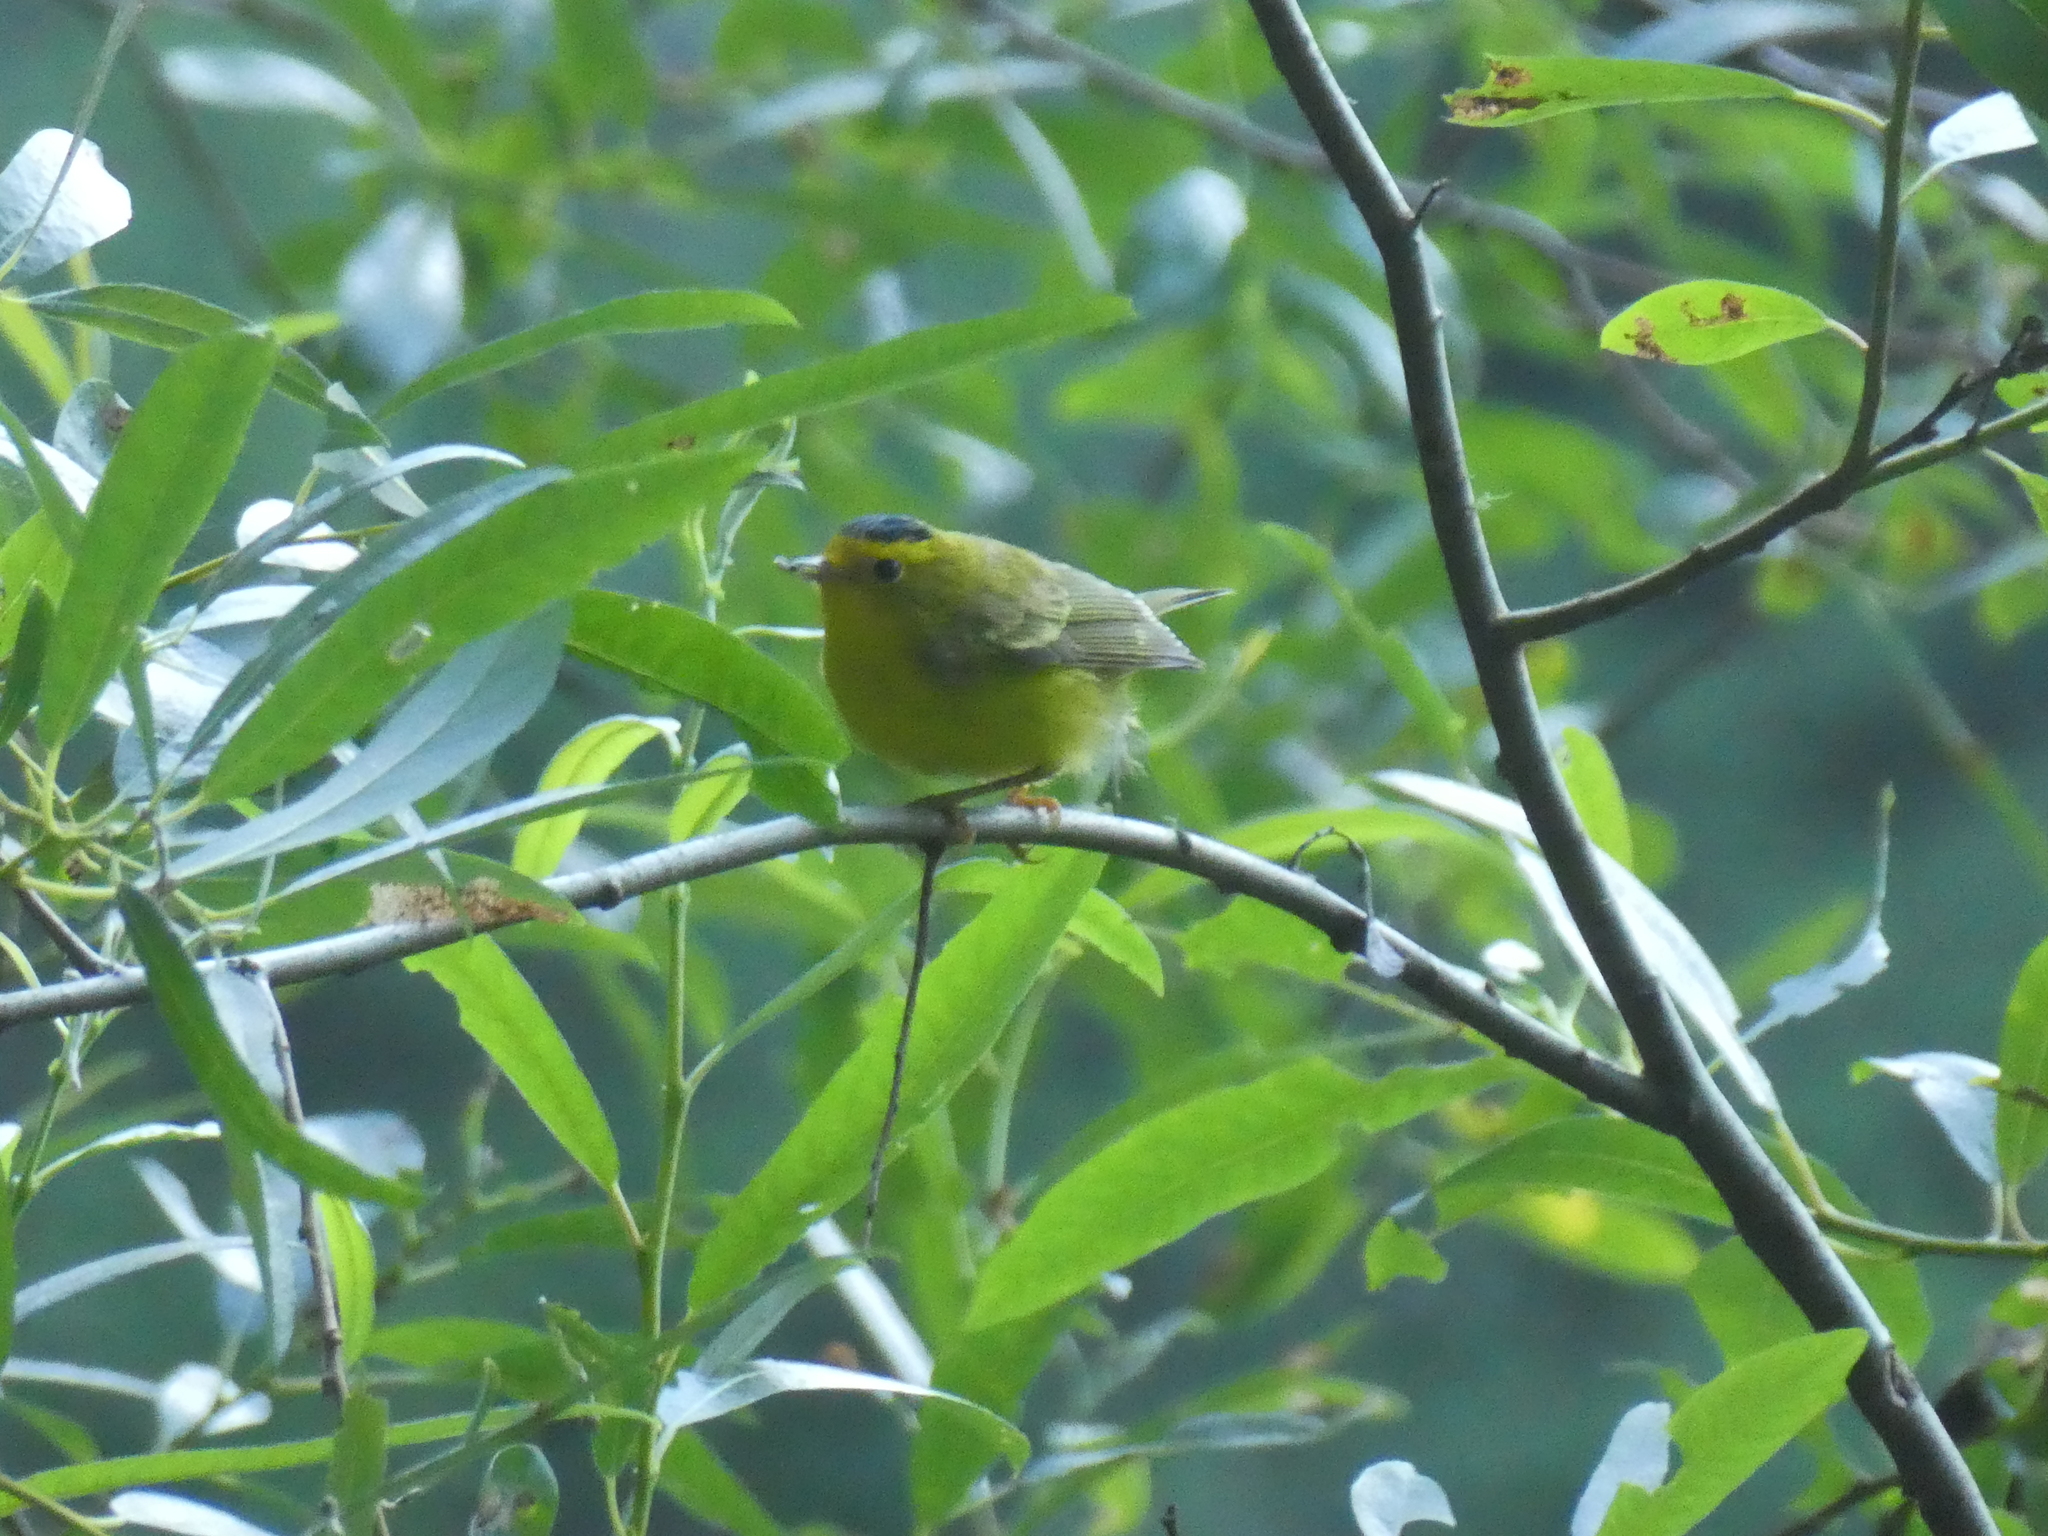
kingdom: Animalia
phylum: Chordata
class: Aves
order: Passeriformes
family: Parulidae
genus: Cardellina
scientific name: Cardellina pusilla
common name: Wilson's warbler
